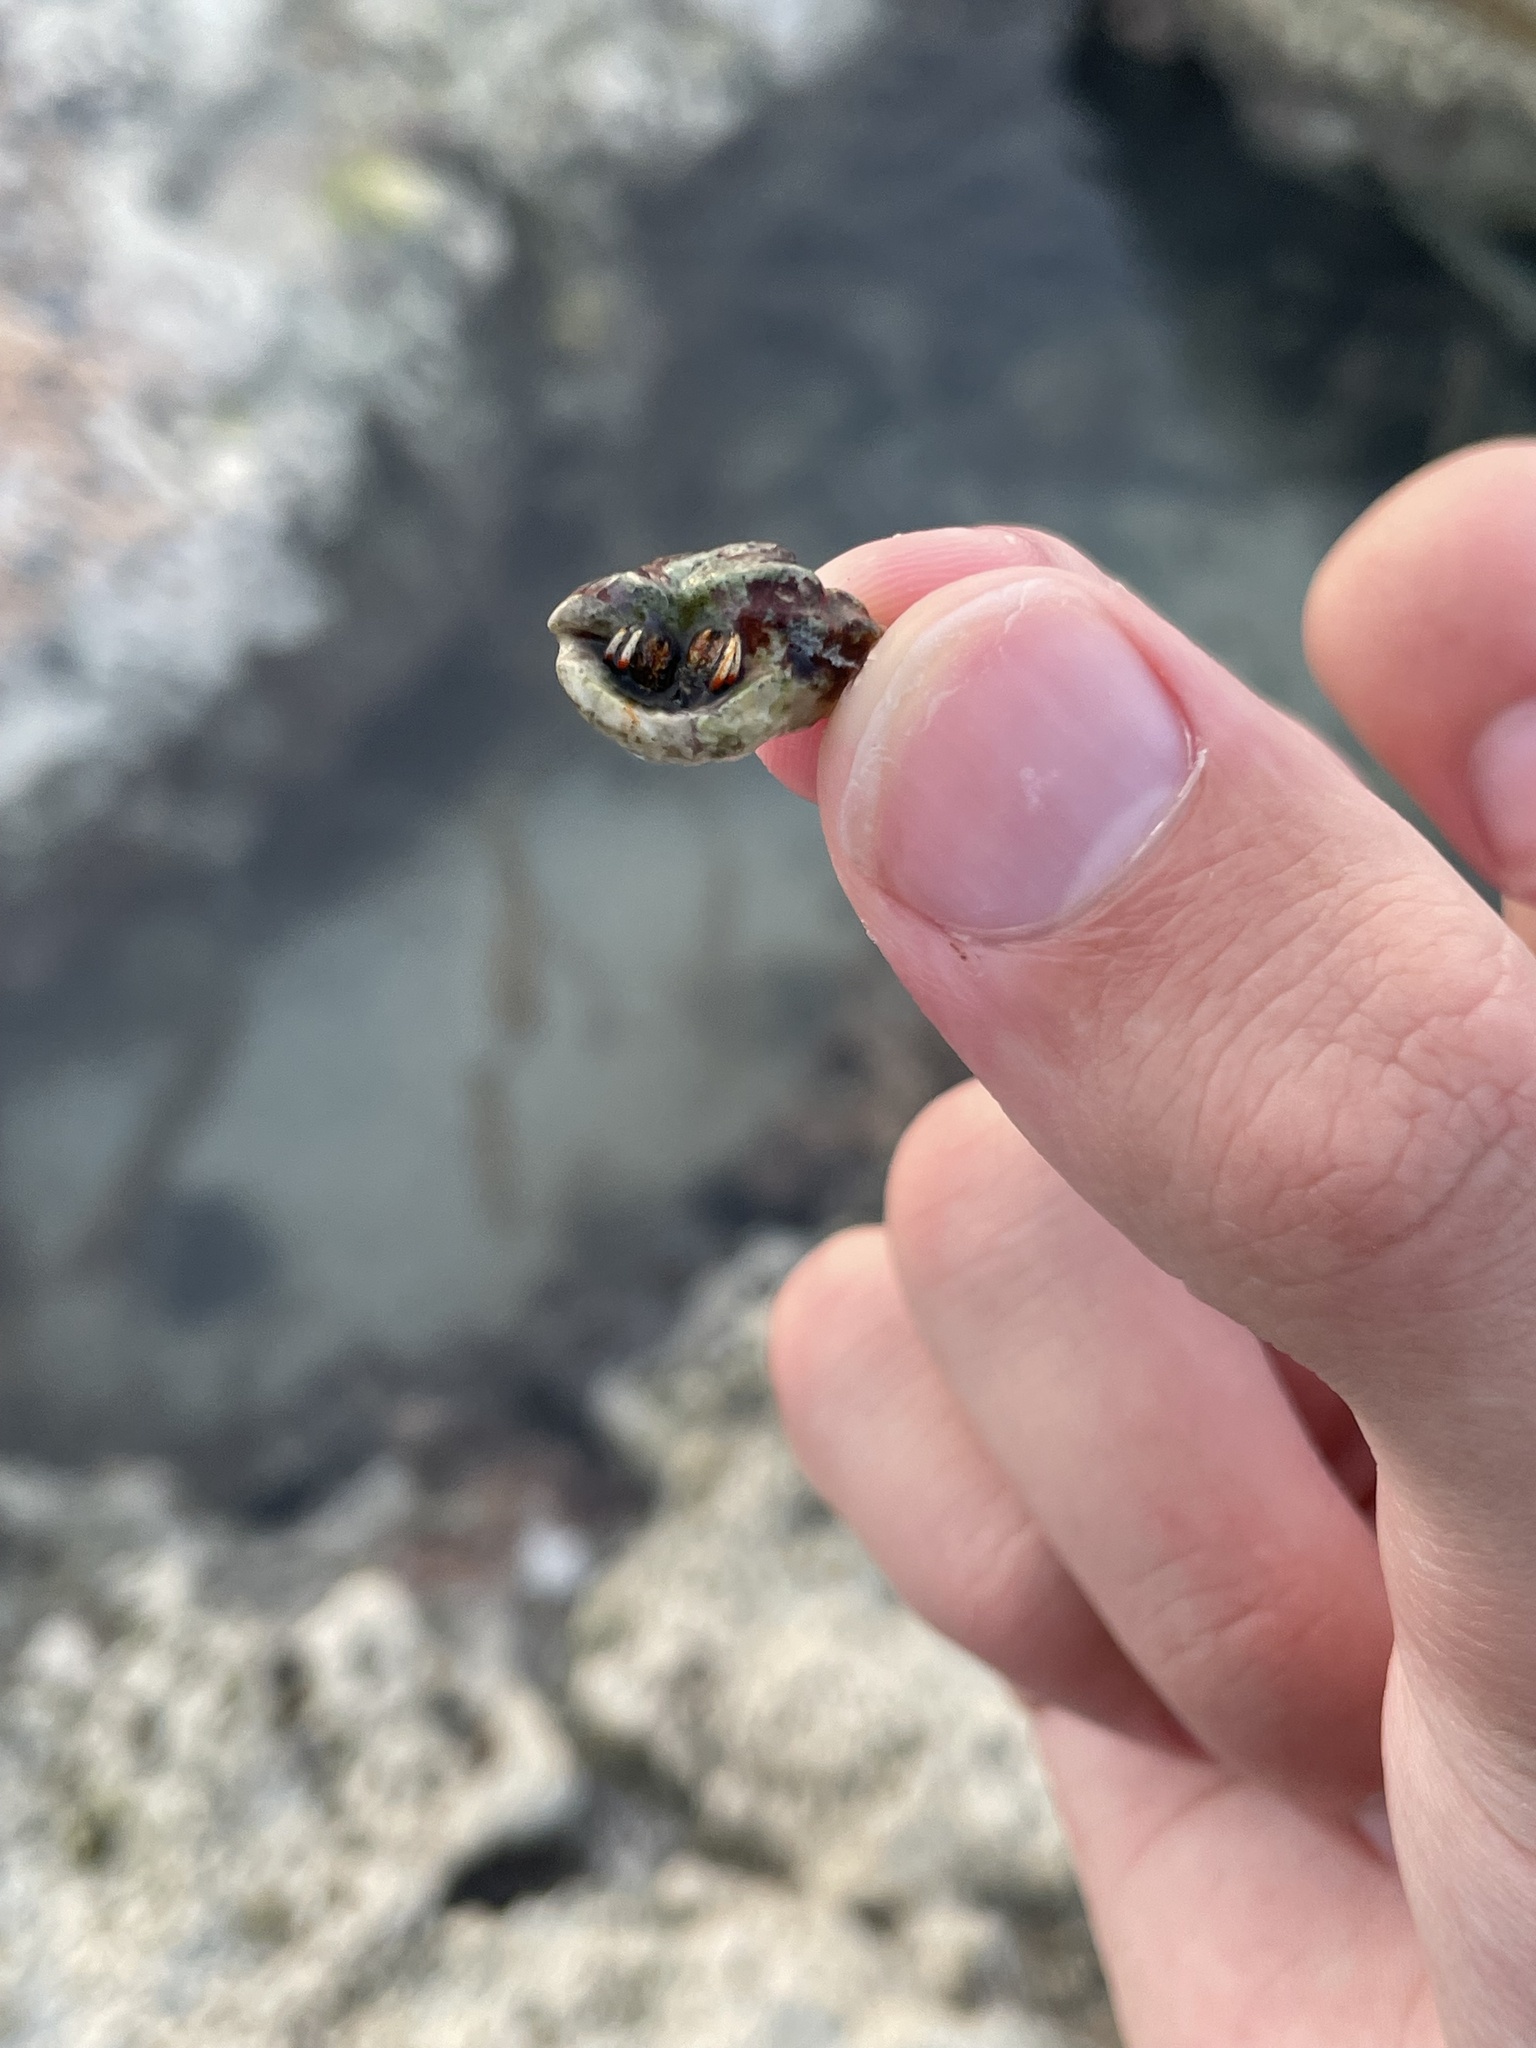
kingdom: Animalia
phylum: Arthropoda
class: Malacostraca
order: Decapoda
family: Diogenidae
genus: Clibanarius
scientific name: Clibanarius tricolor
